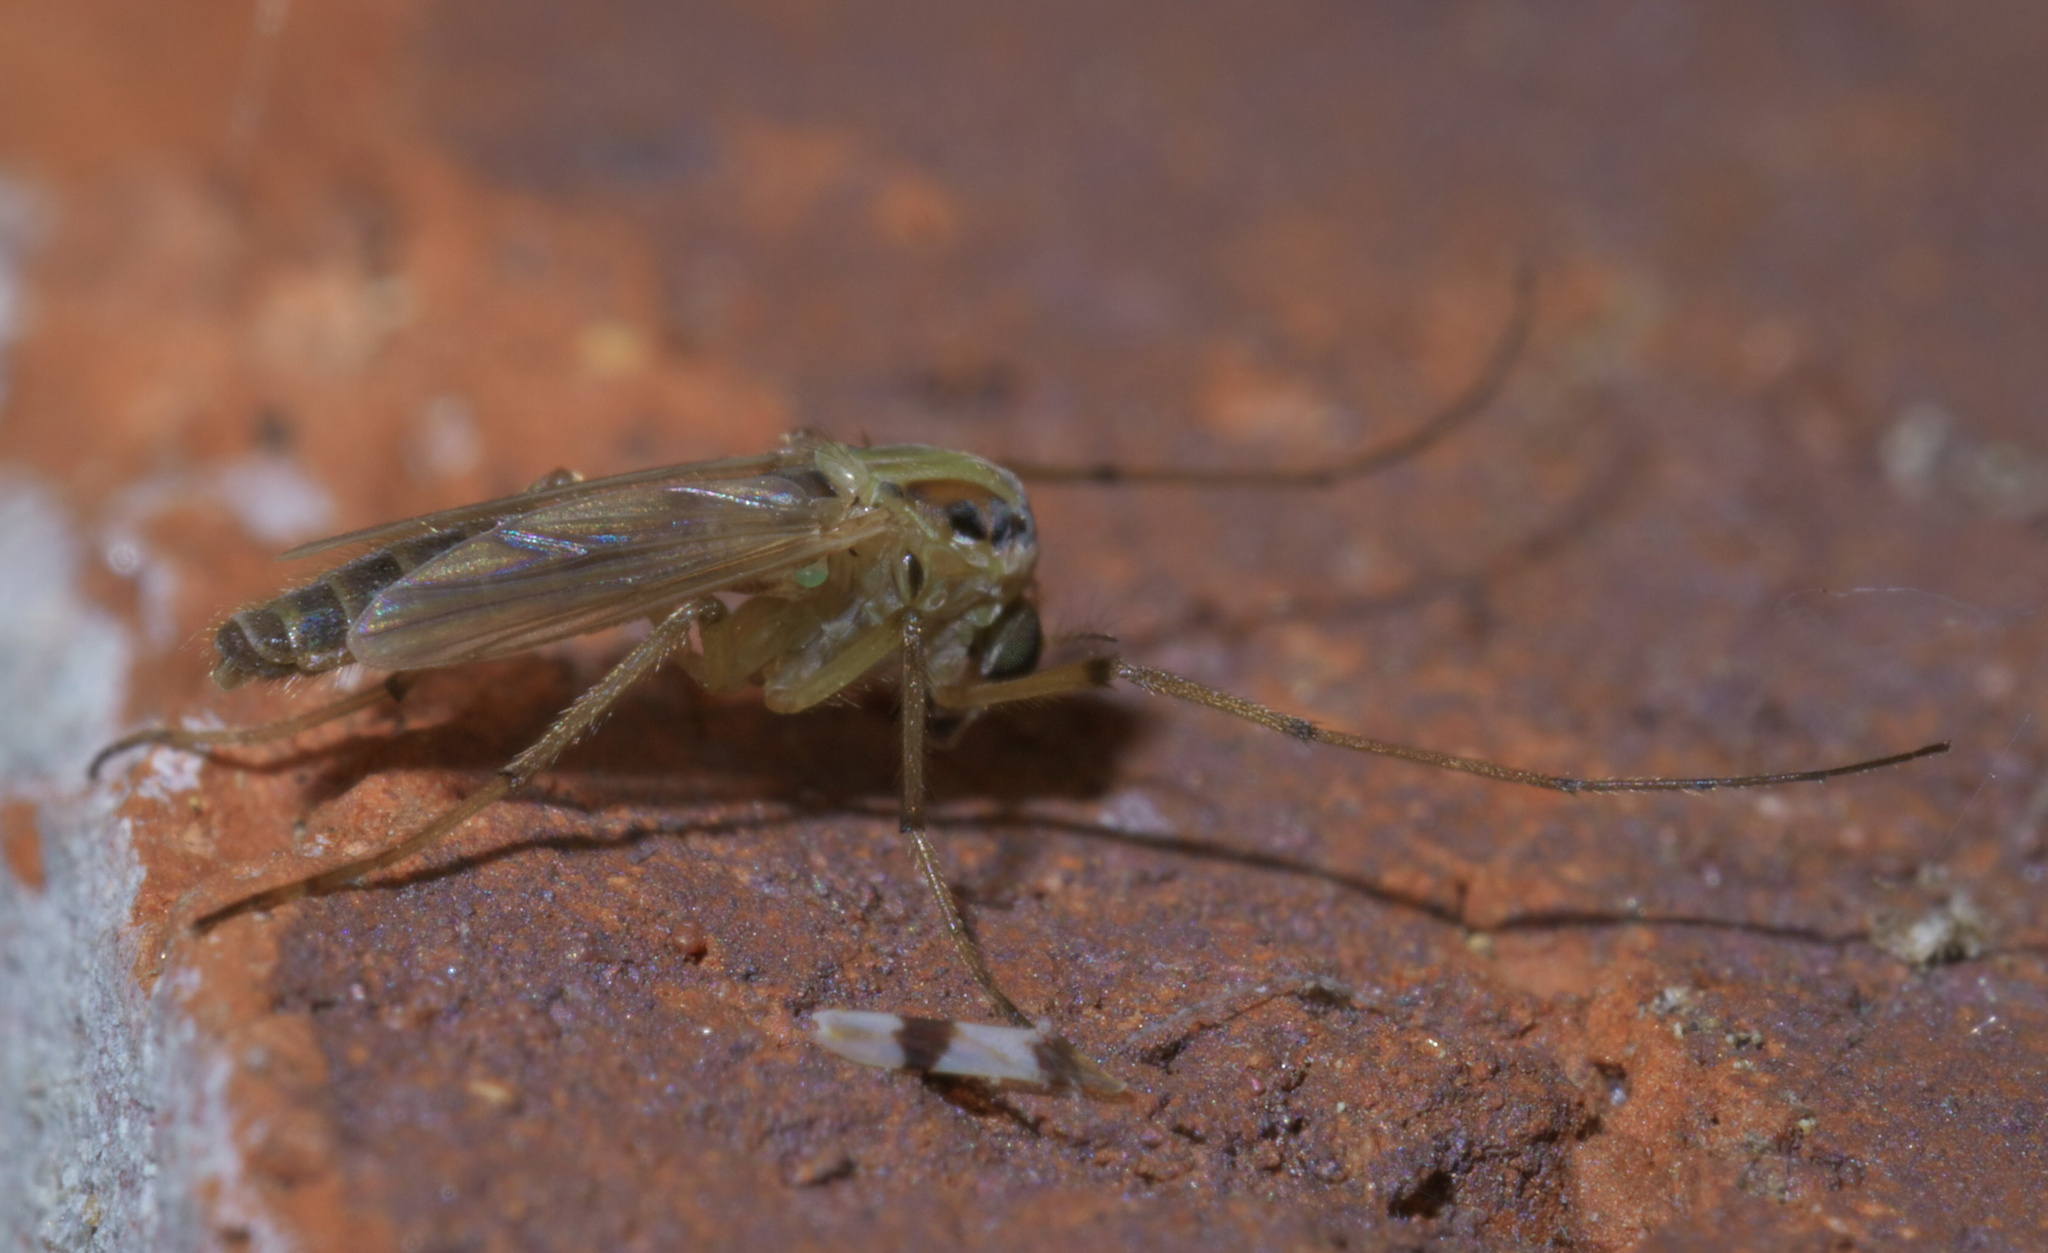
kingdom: Animalia
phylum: Arthropoda
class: Insecta
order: Diptera
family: Chironomidae
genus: Goeldichironomus
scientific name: Goeldichironomus carus
